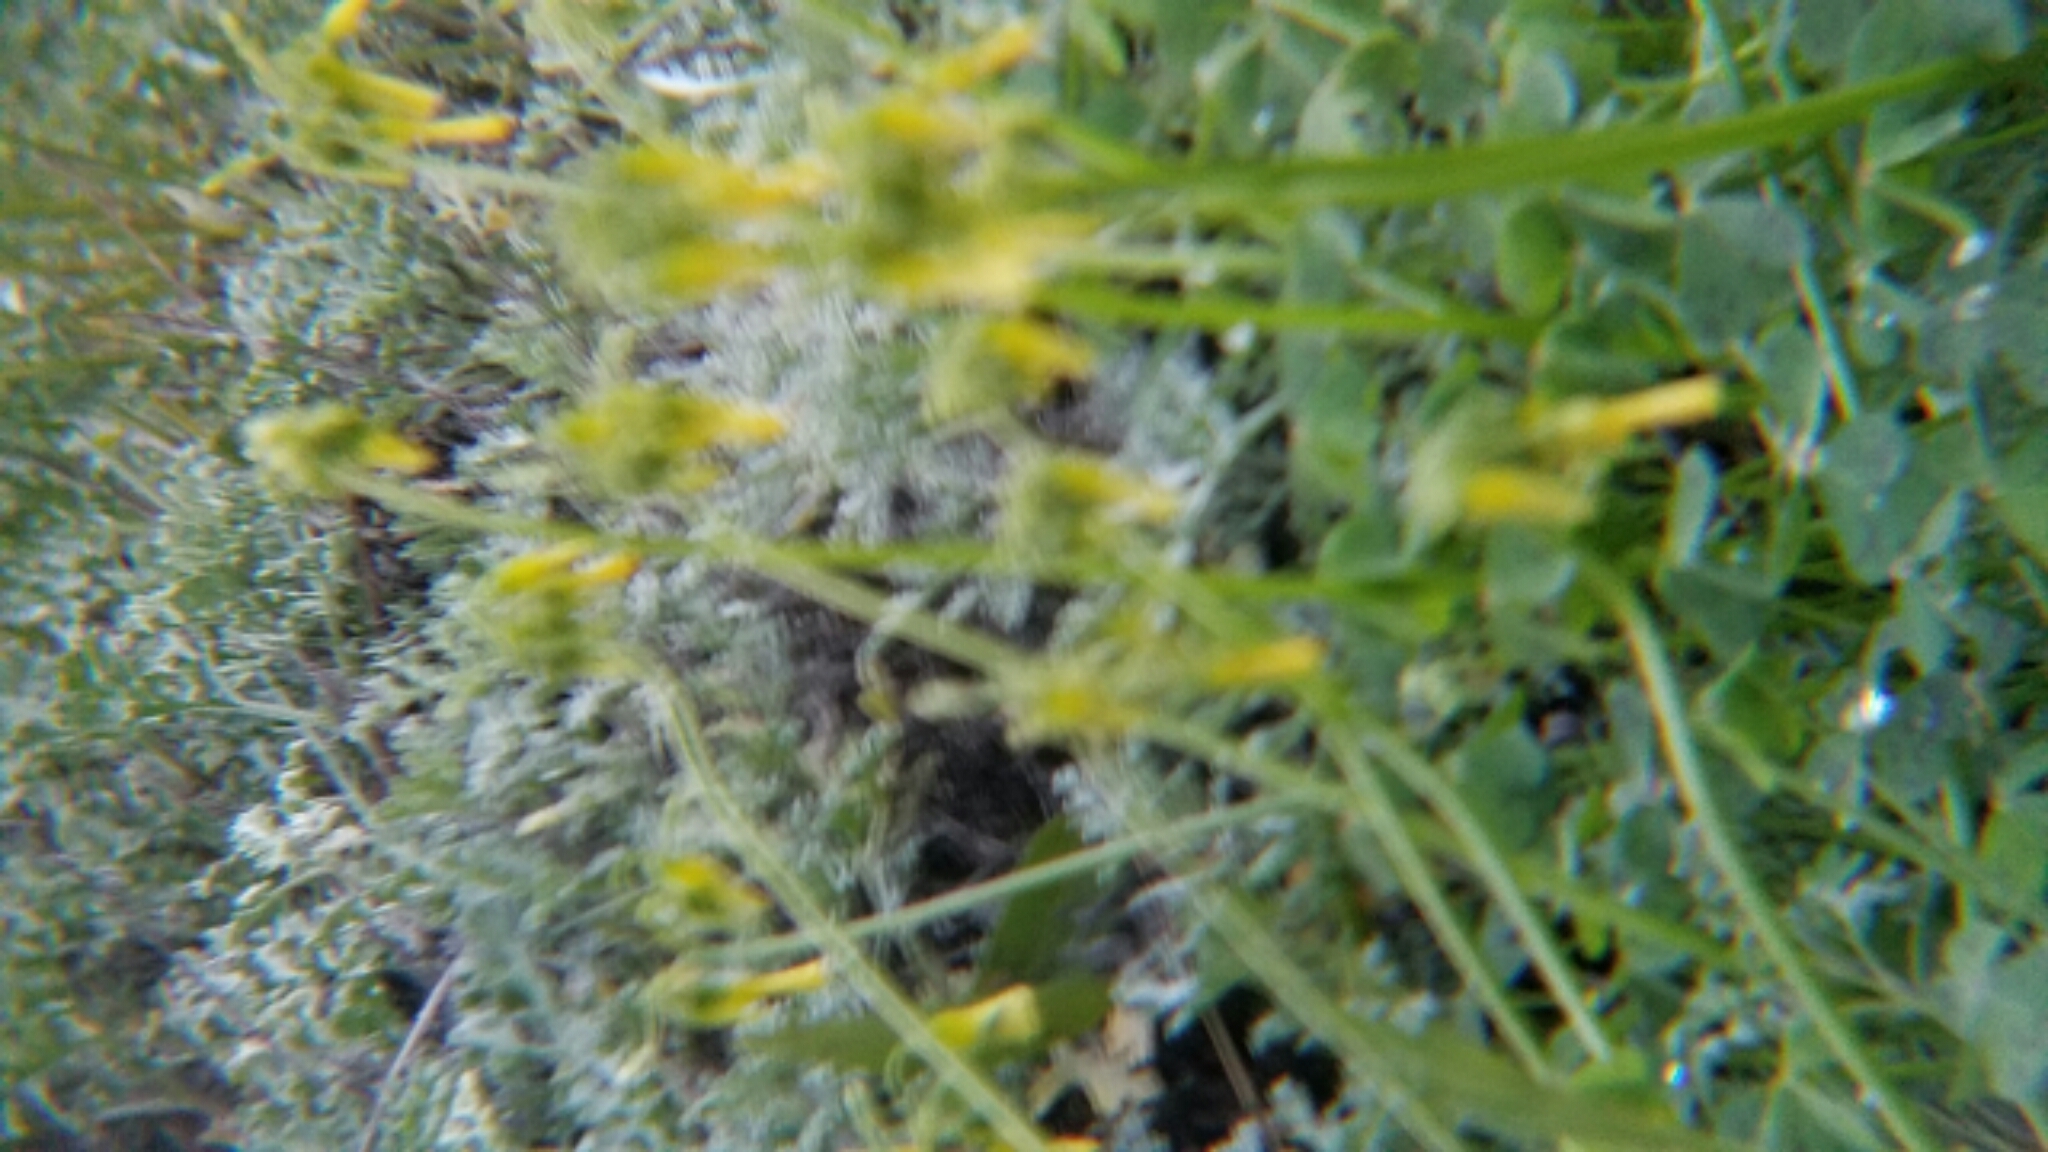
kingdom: Plantae
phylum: Tracheophyta
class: Magnoliopsida
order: Oxalidales
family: Oxalidaceae
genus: Oxalis
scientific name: Oxalis pes-caprae
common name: Bermuda-buttercup
